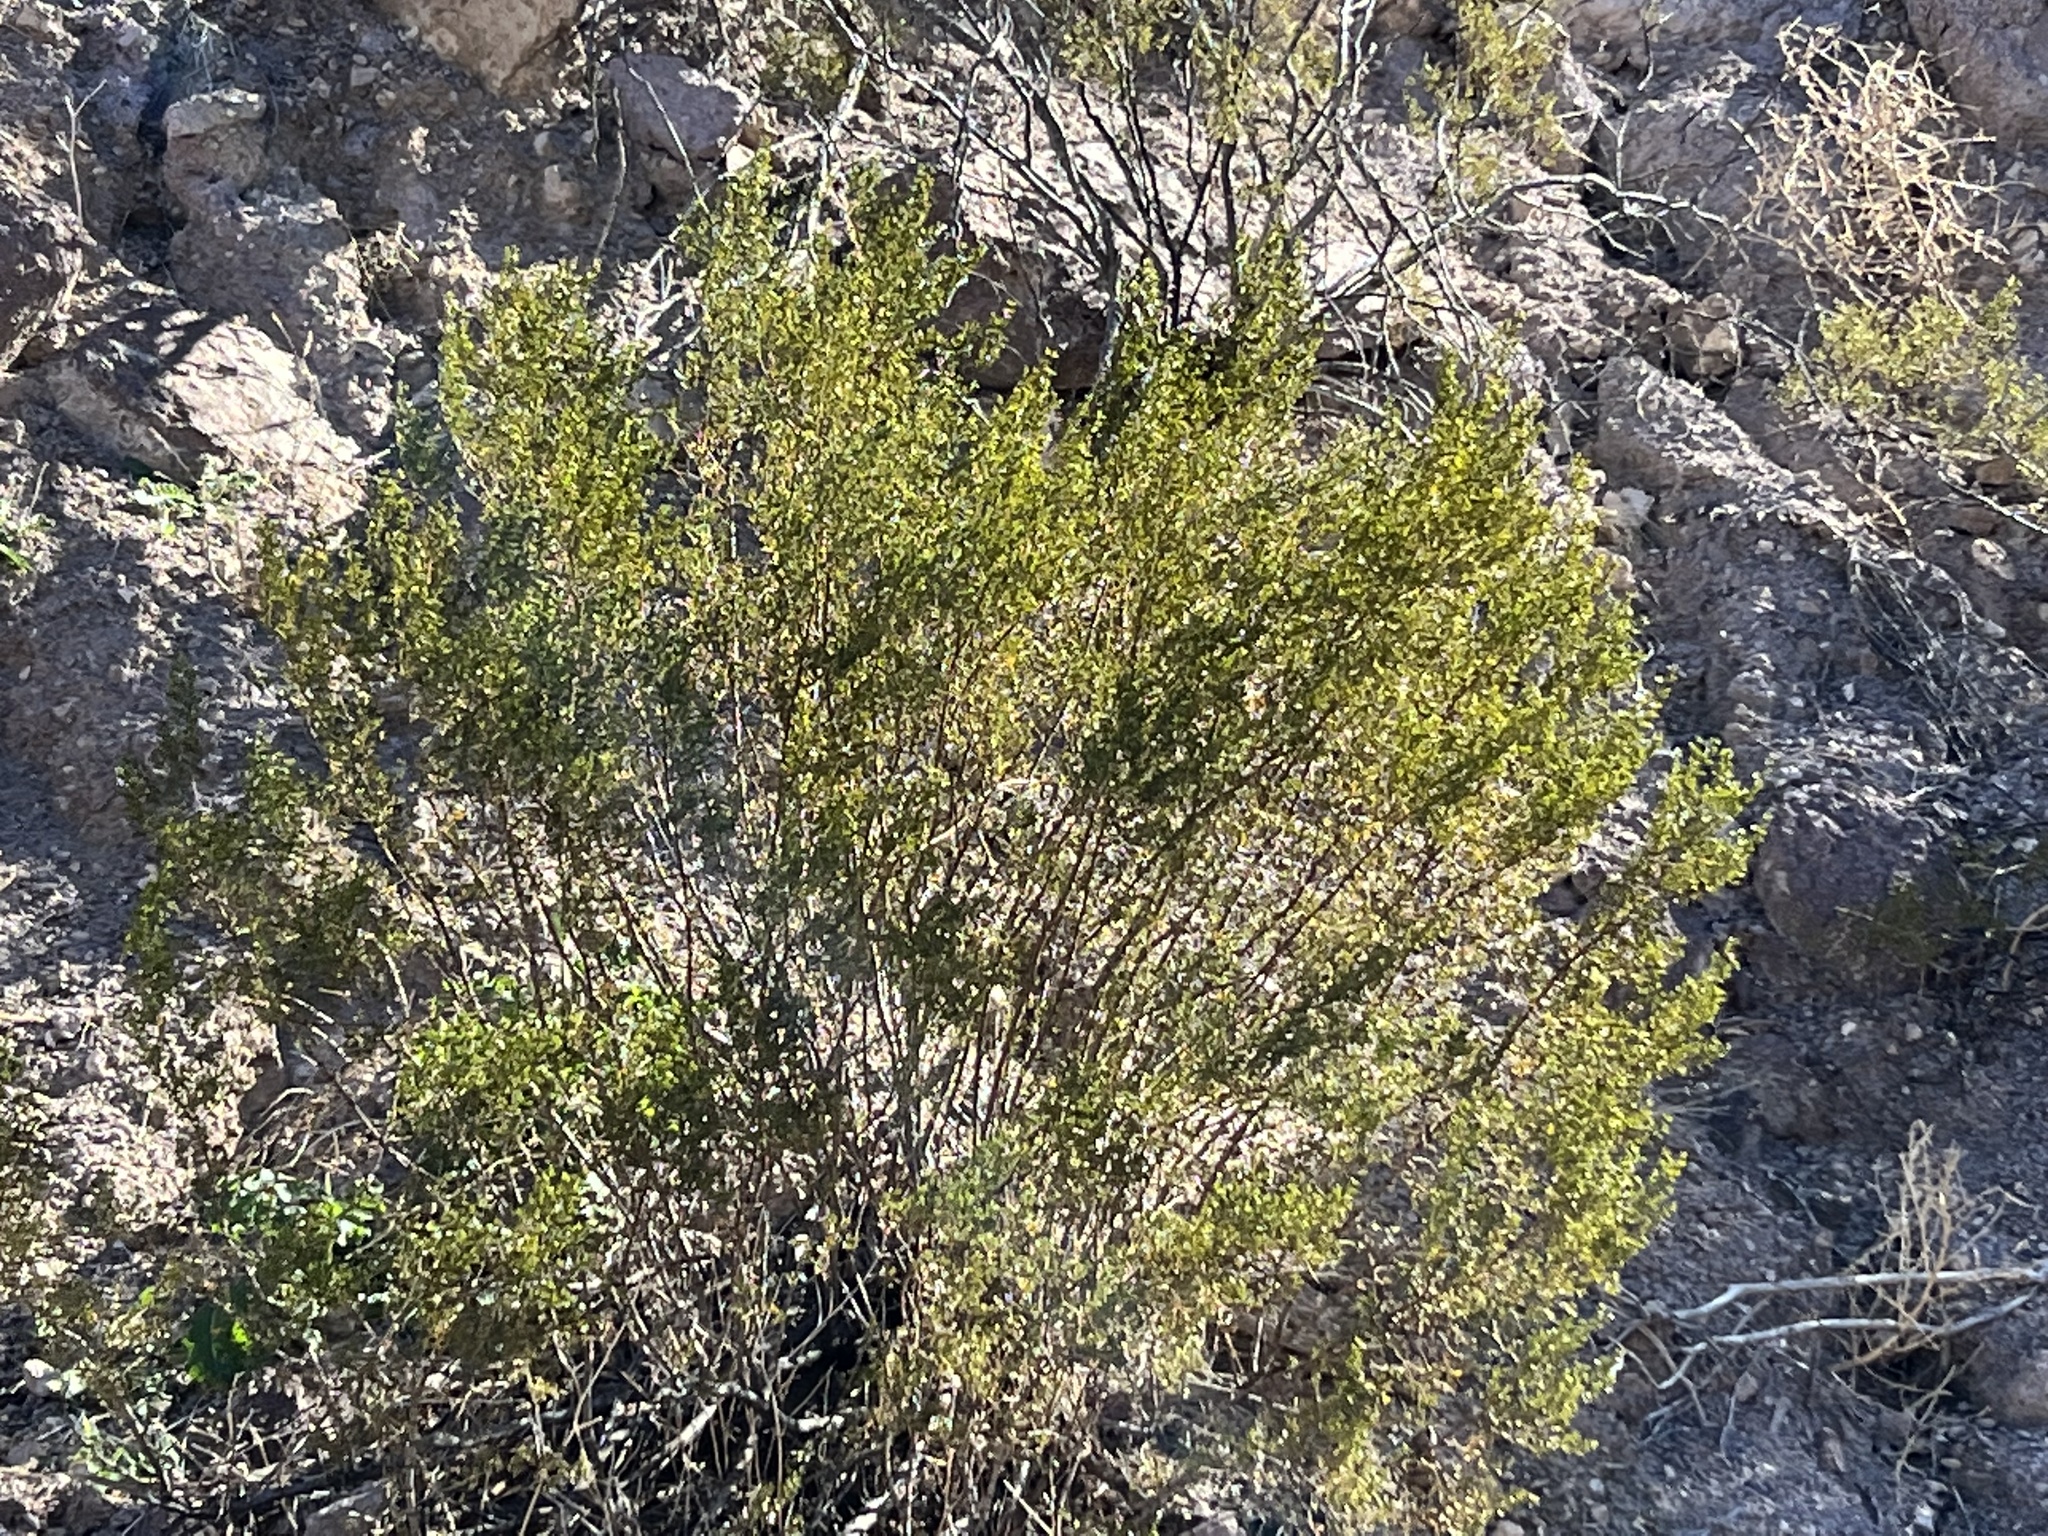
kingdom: Plantae
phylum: Tracheophyta
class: Magnoliopsida
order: Zygophyllales
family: Zygophyllaceae
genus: Larrea
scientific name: Larrea tridentata
